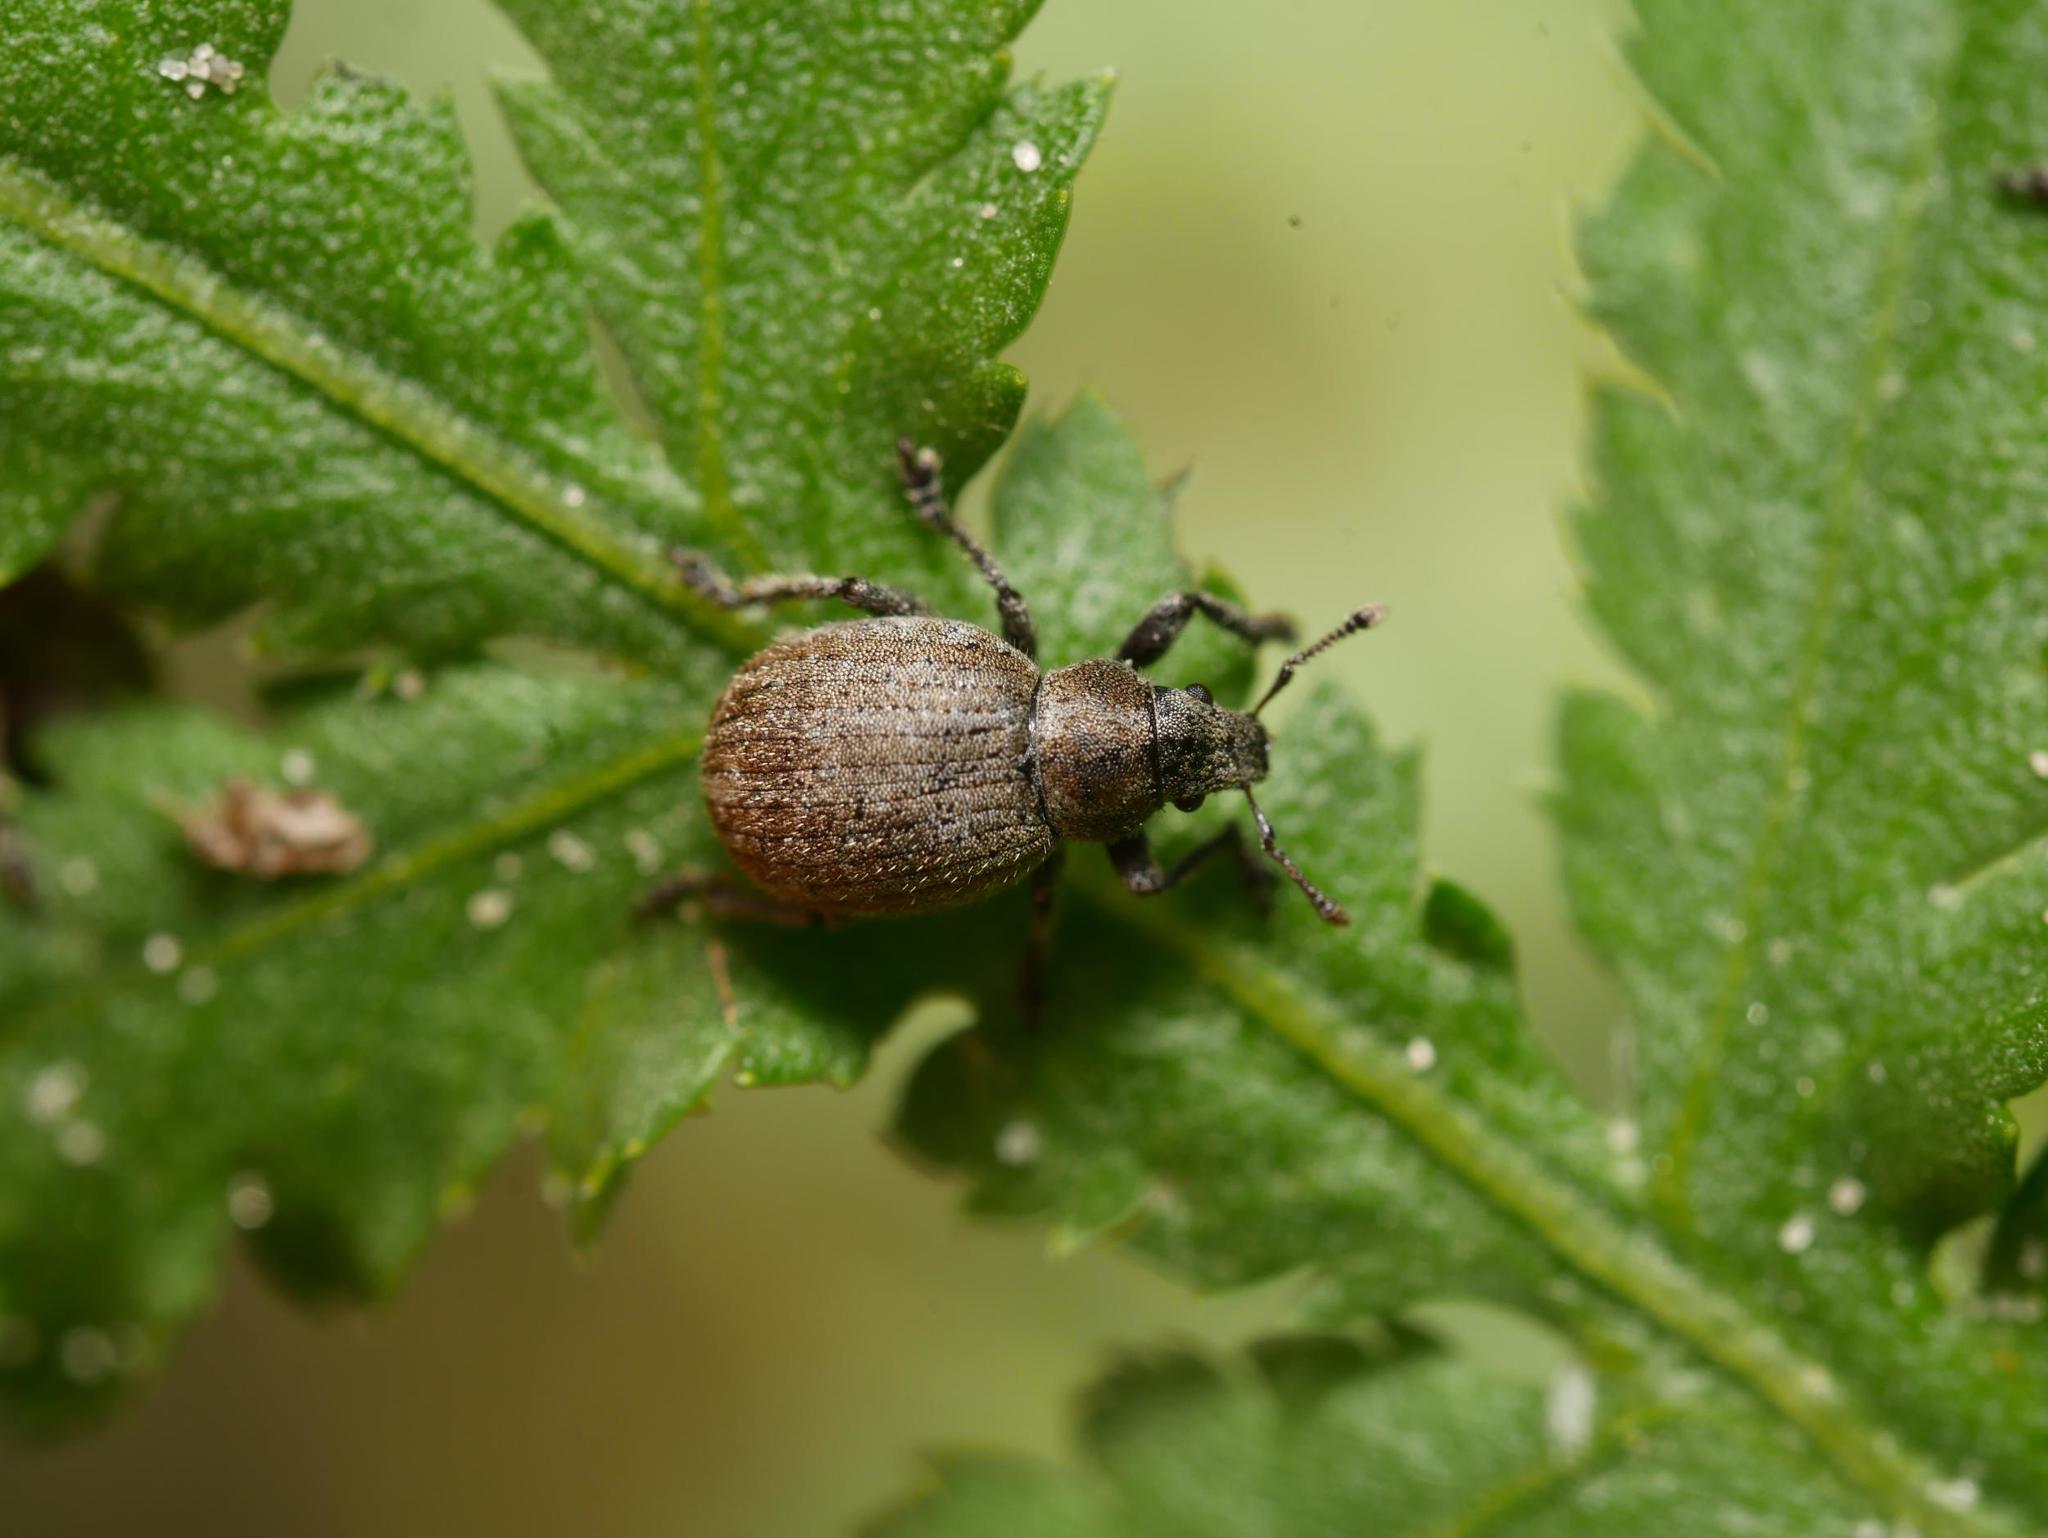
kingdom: Animalia
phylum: Arthropoda
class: Insecta
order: Coleoptera
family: Curculionidae
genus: Philopedon
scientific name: Philopedon plagiatum
